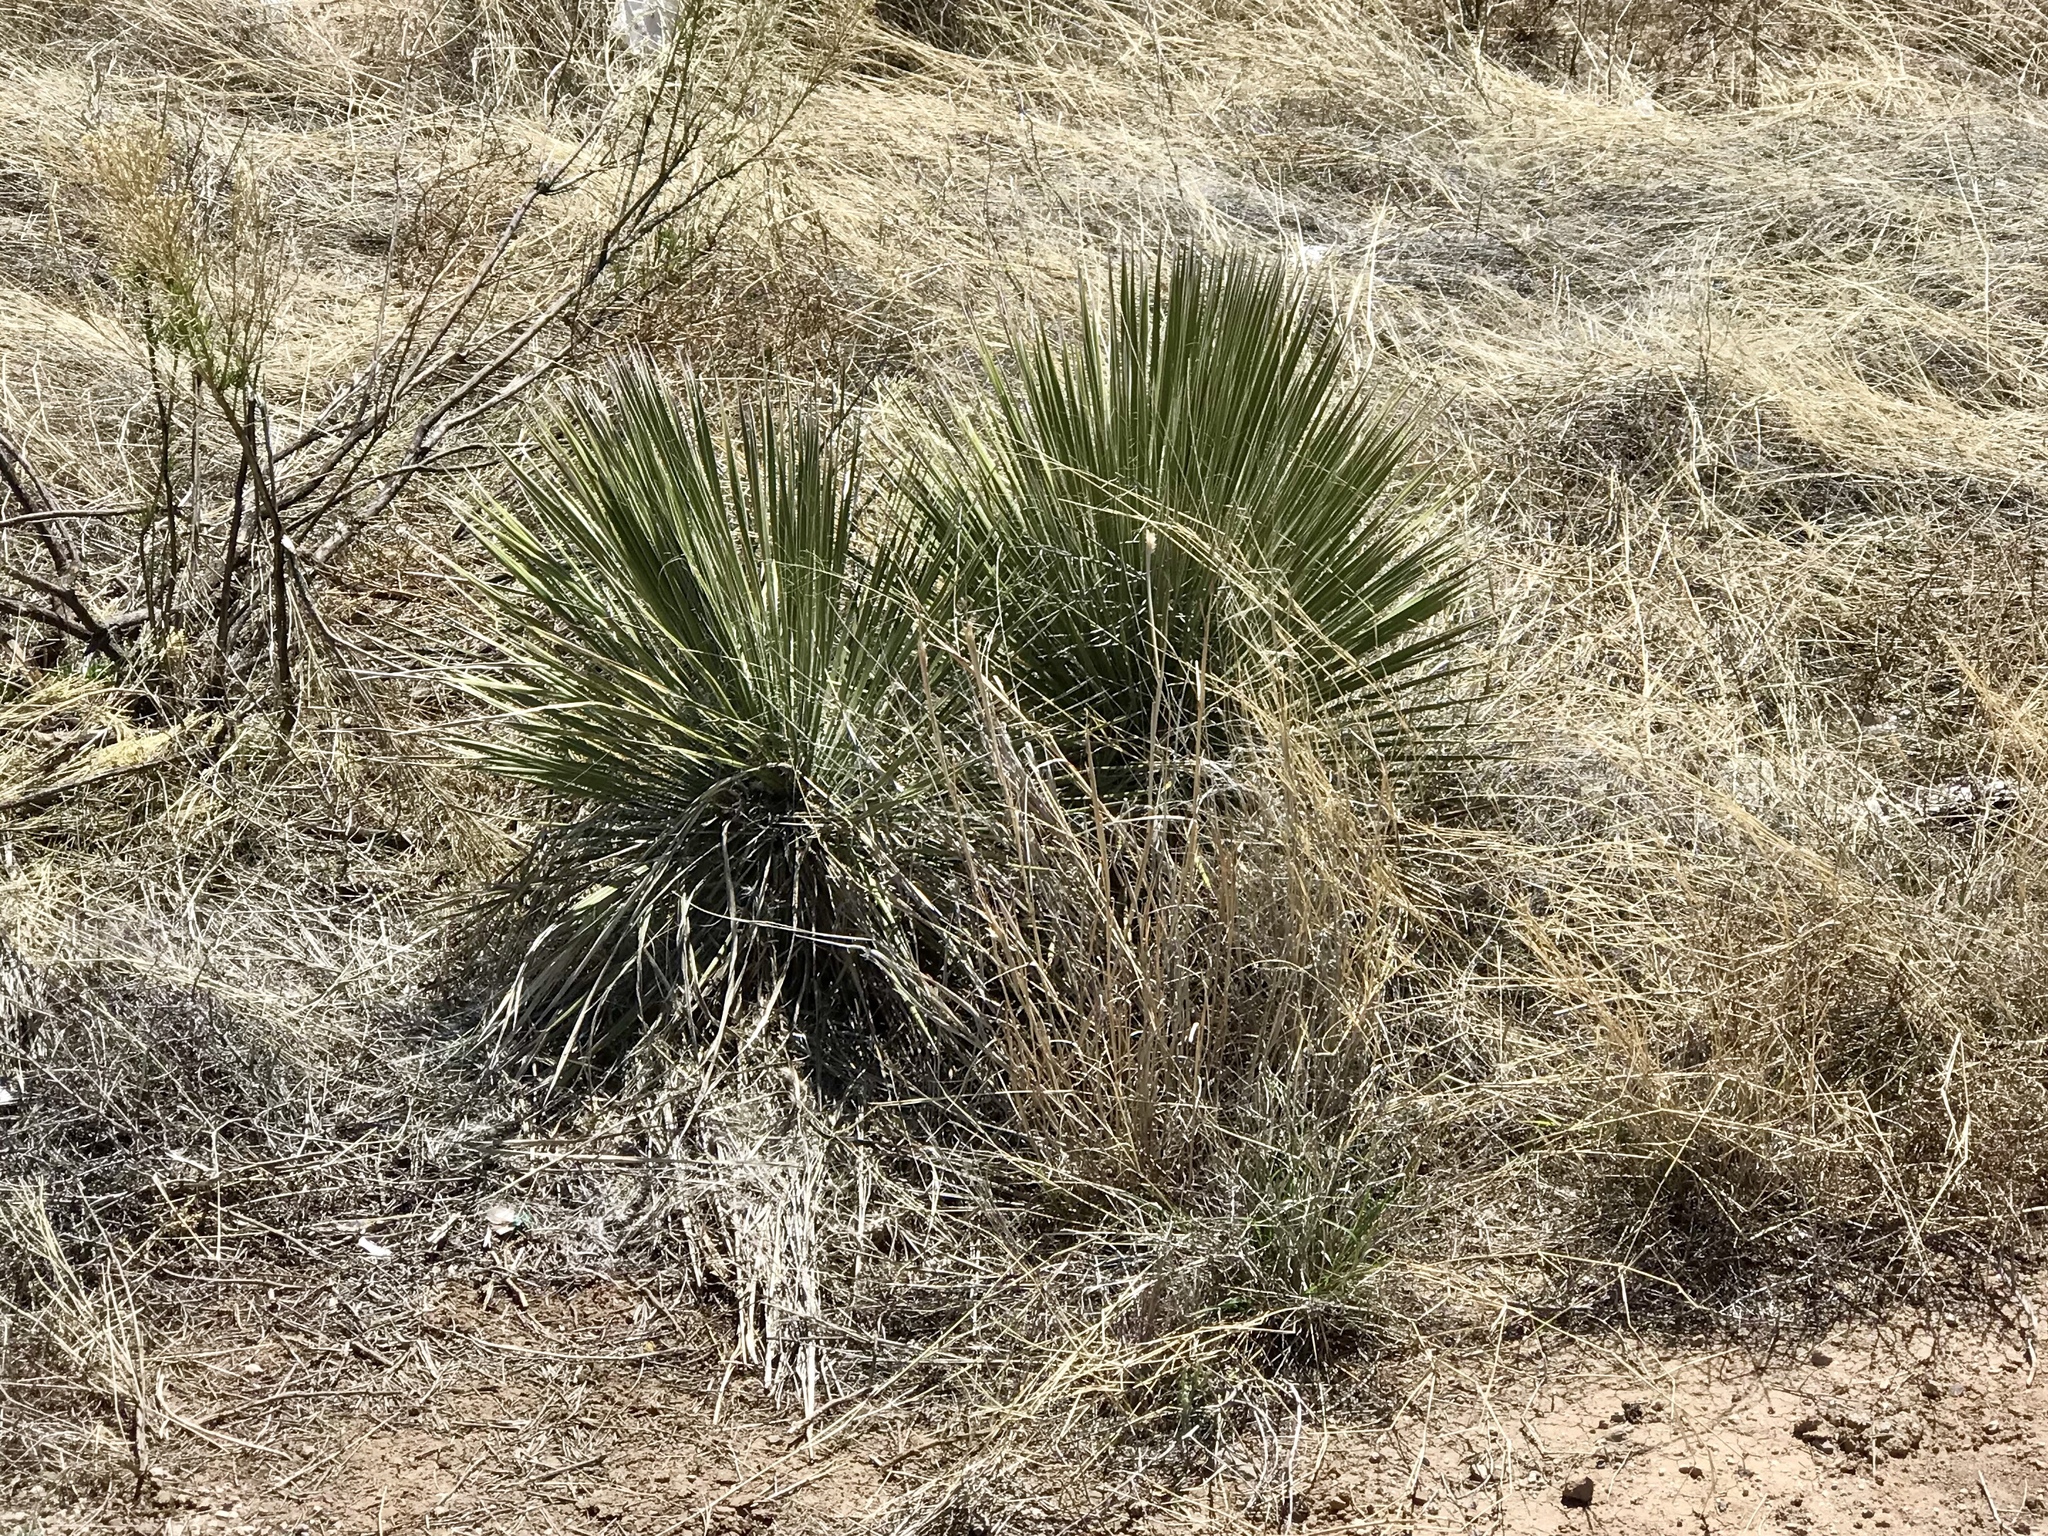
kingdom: Plantae
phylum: Tracheophyta
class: Liliopsida
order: Asparagales
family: Asparagaceae
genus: Yucca
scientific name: Yucca elata
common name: Palmella
